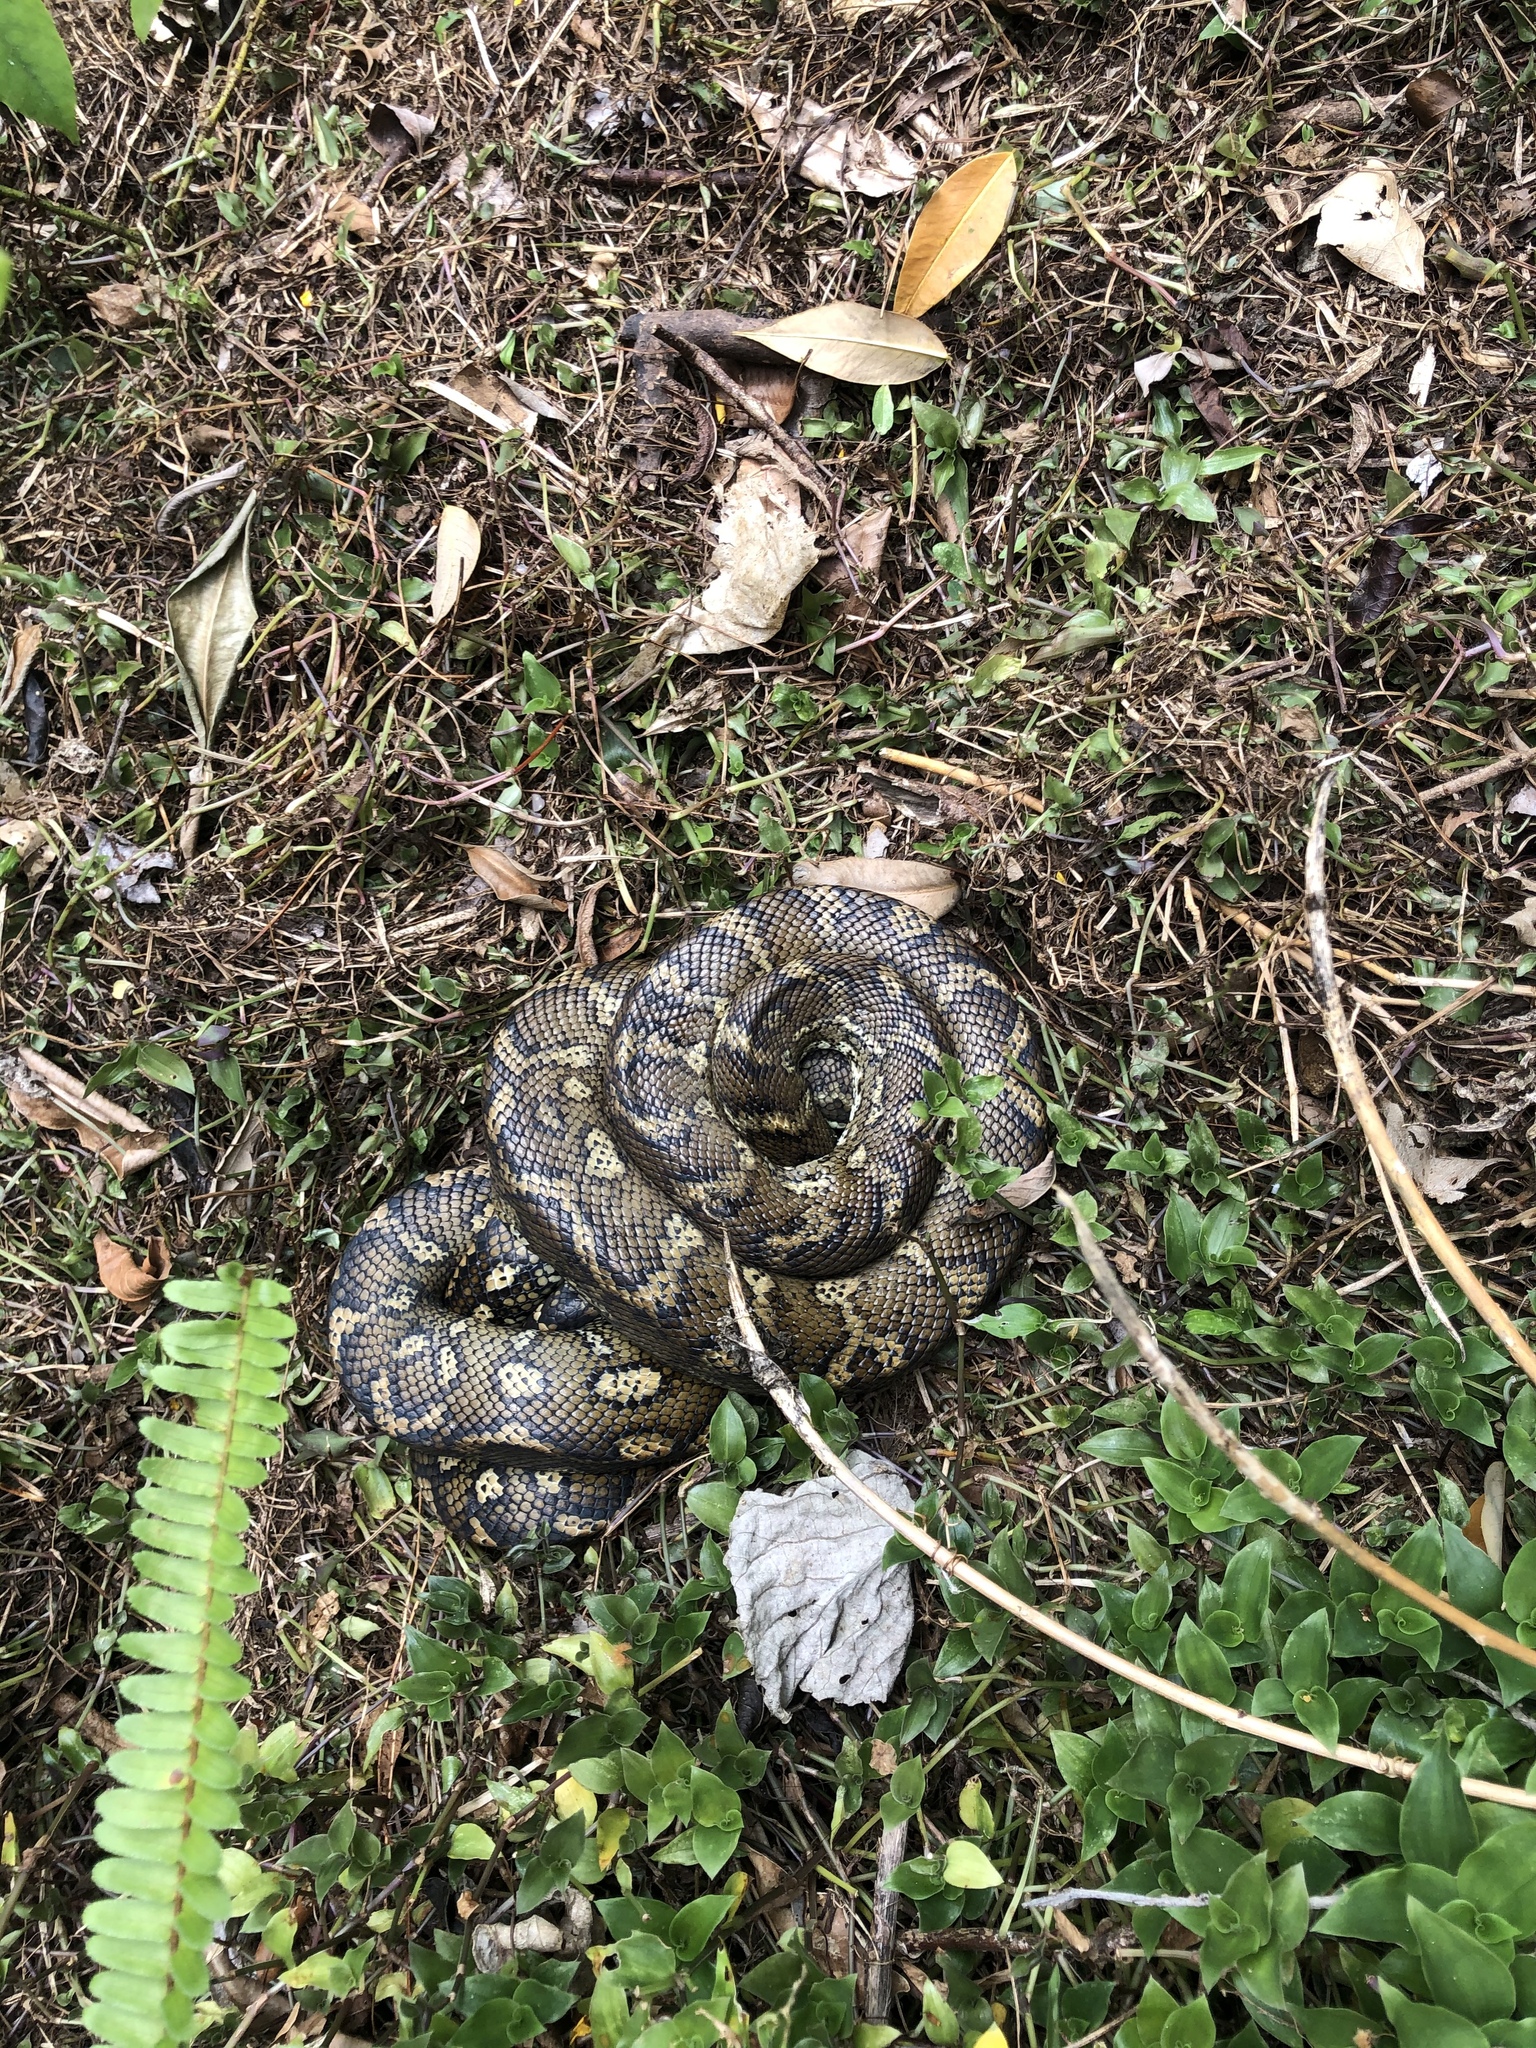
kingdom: Animalia
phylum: Chordata
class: Squamata
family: Pythonidae
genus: Morelia
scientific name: Morelia spilota
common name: Carpet python
